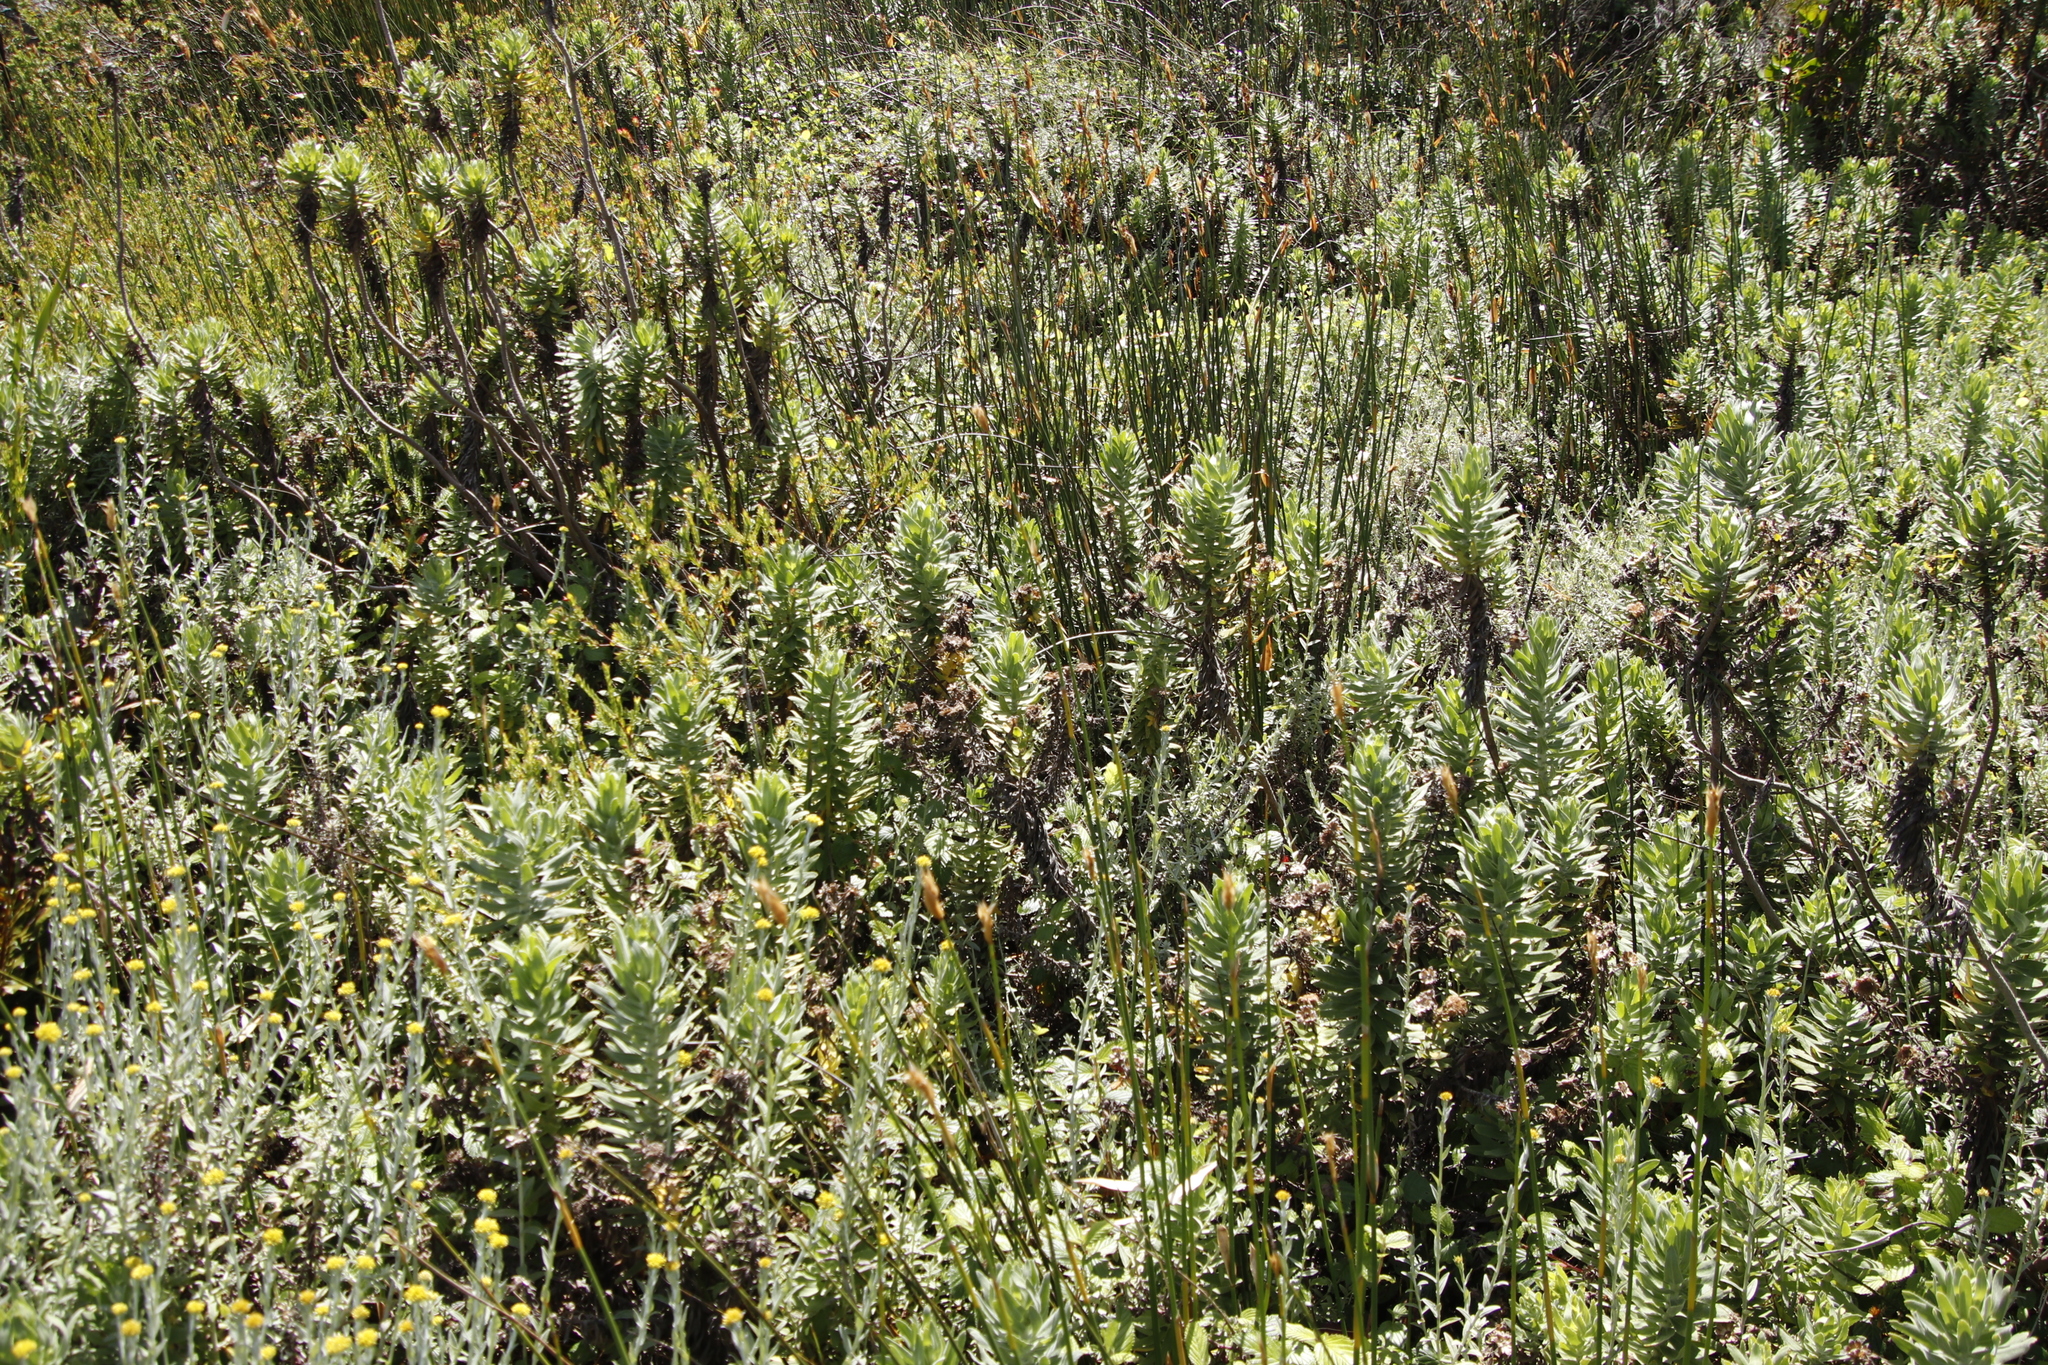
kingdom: Plantae
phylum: Tracheophyta
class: Magnoliopsida
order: Asterales
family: Asteraceae
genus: Osmitopsis
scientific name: Osmitopsis asteriscoides
